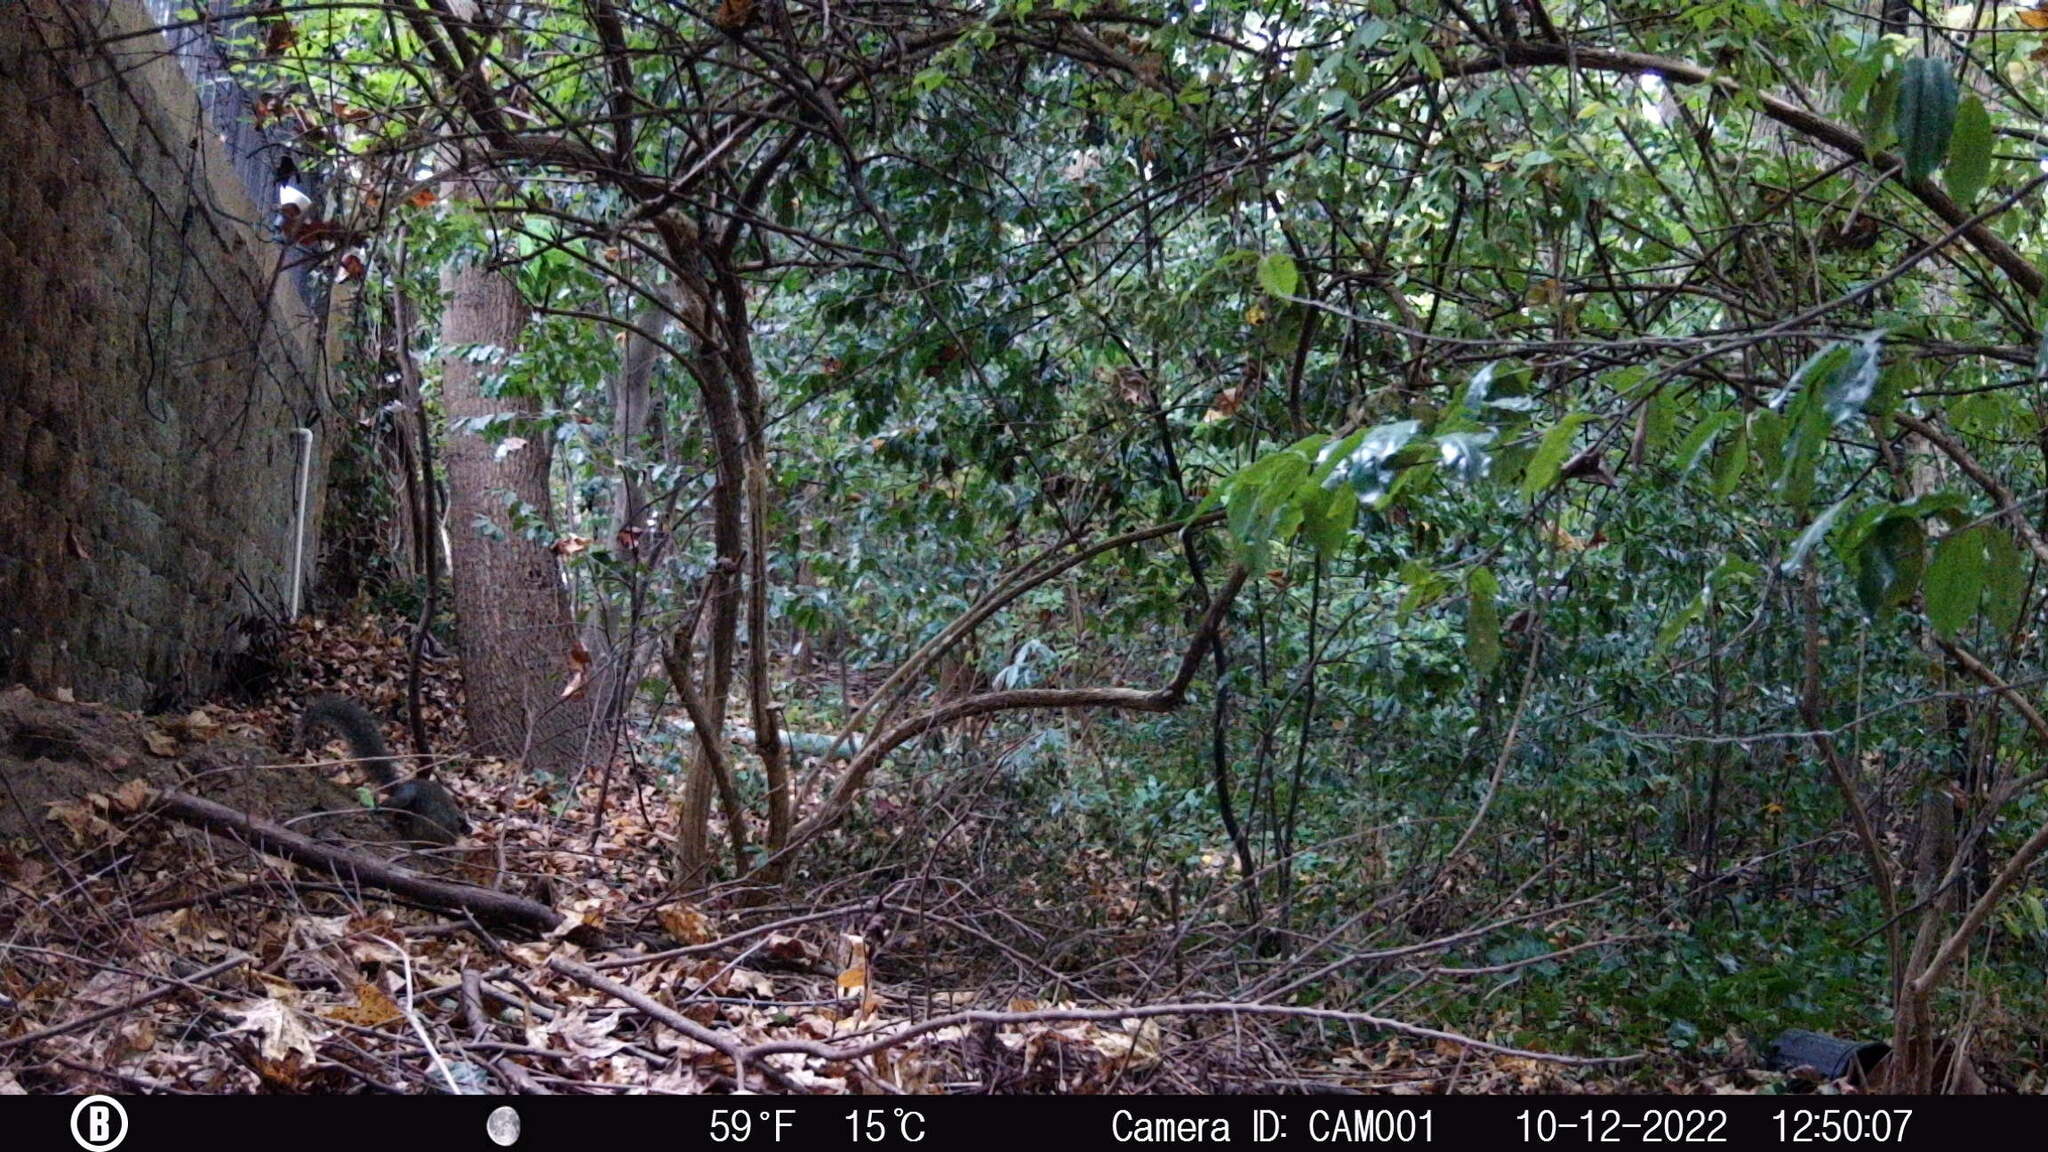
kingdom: Animalia
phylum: Chordata
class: Mammalia
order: Rodentia
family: Sciuridae
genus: Sciurus
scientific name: Sciurus carolinensis
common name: Eastern gray squirrel
